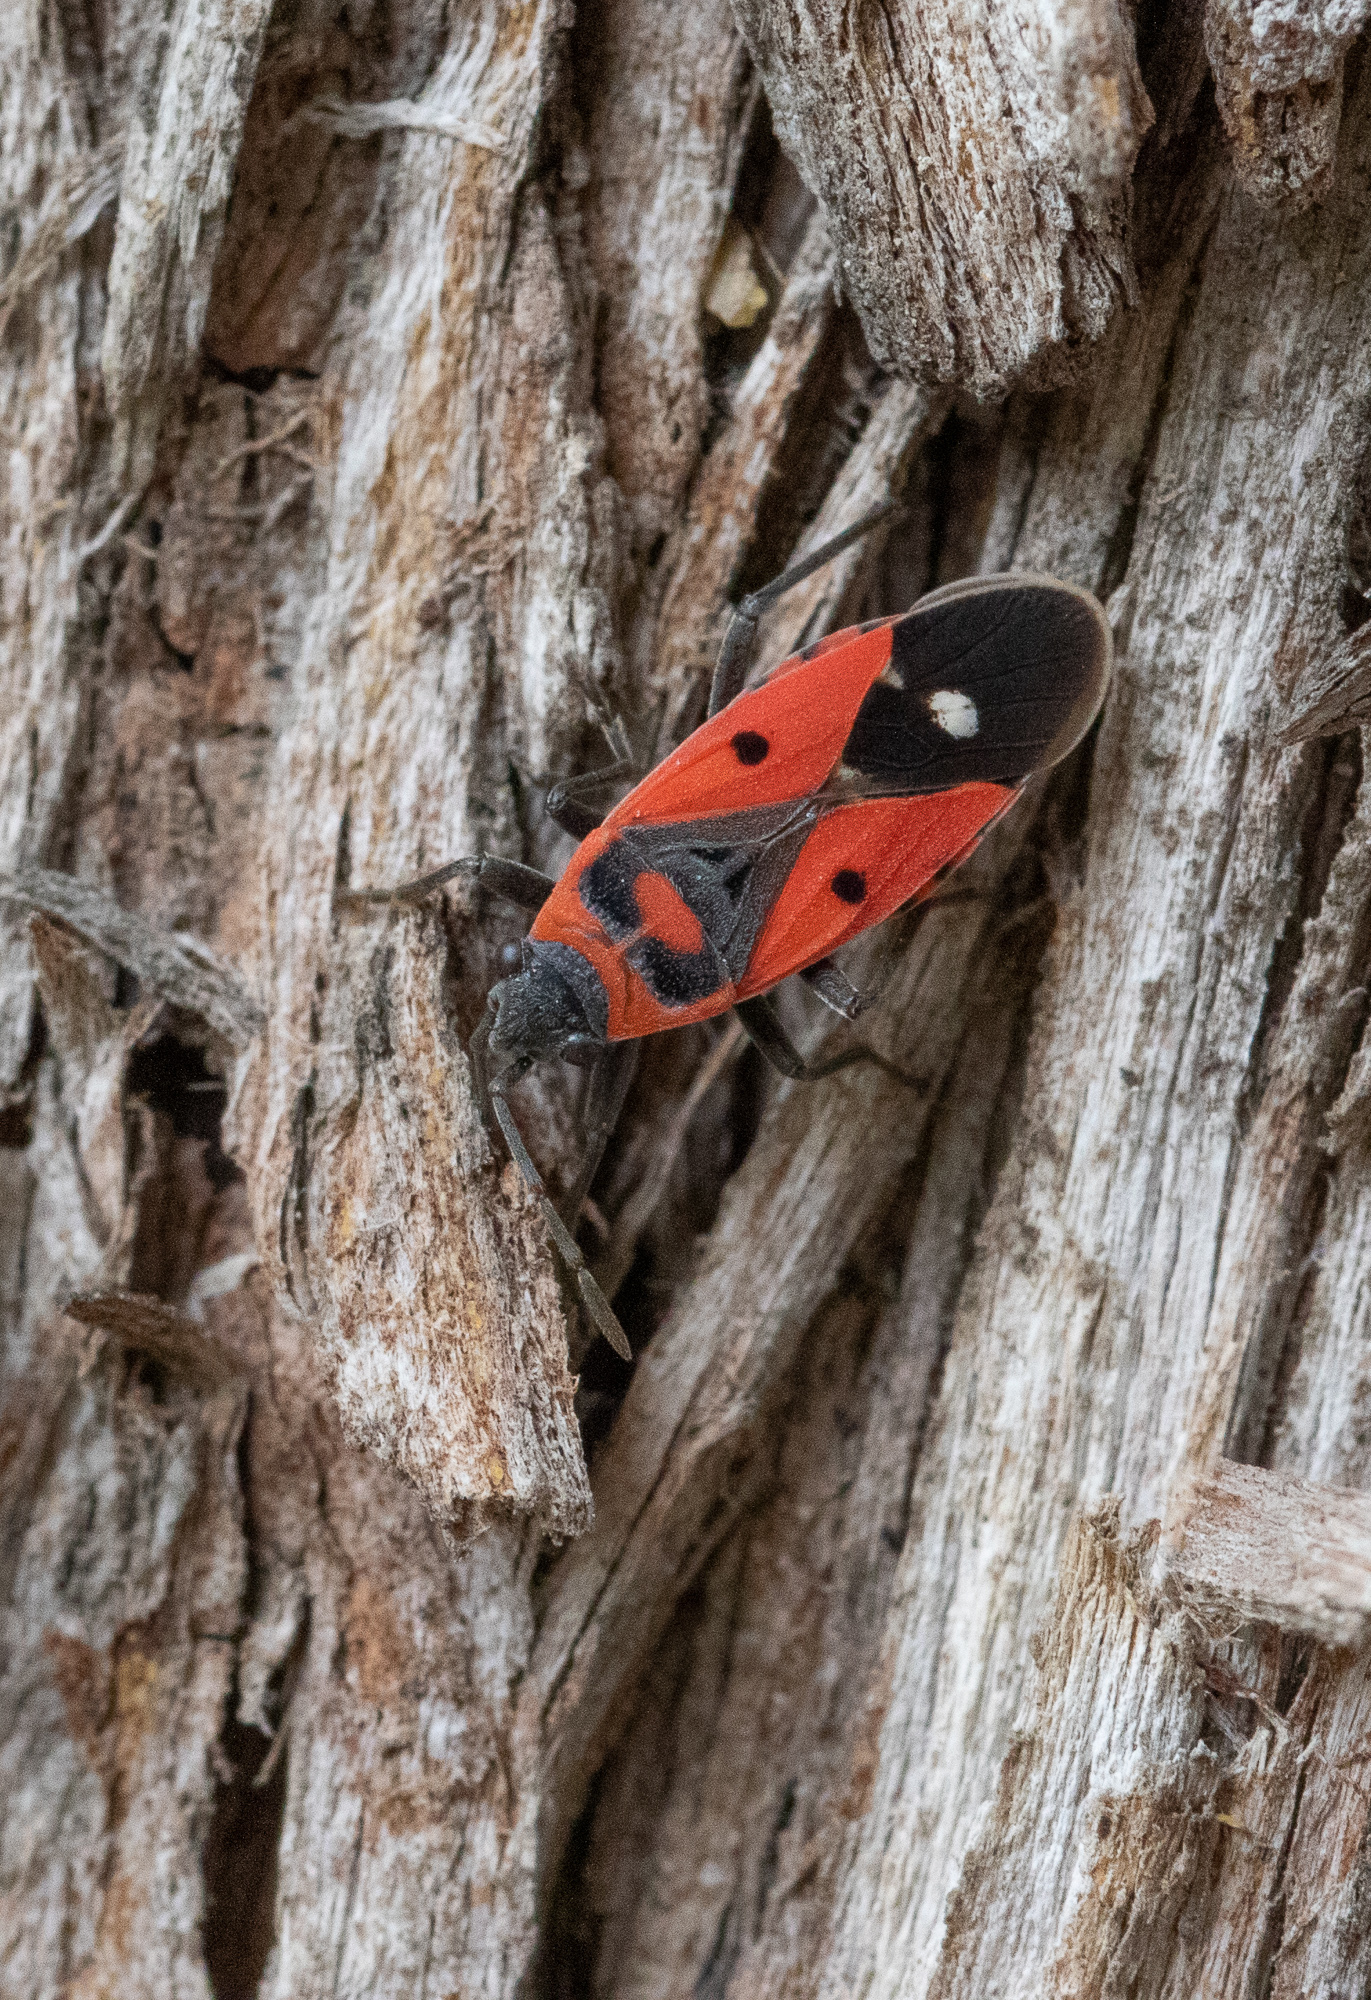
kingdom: Animalia
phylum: Arthropoda
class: Insecta
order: Hemiptera
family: Lygaeidae
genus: Melanocoryphus
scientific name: Melanocoryphus albomaculatus
